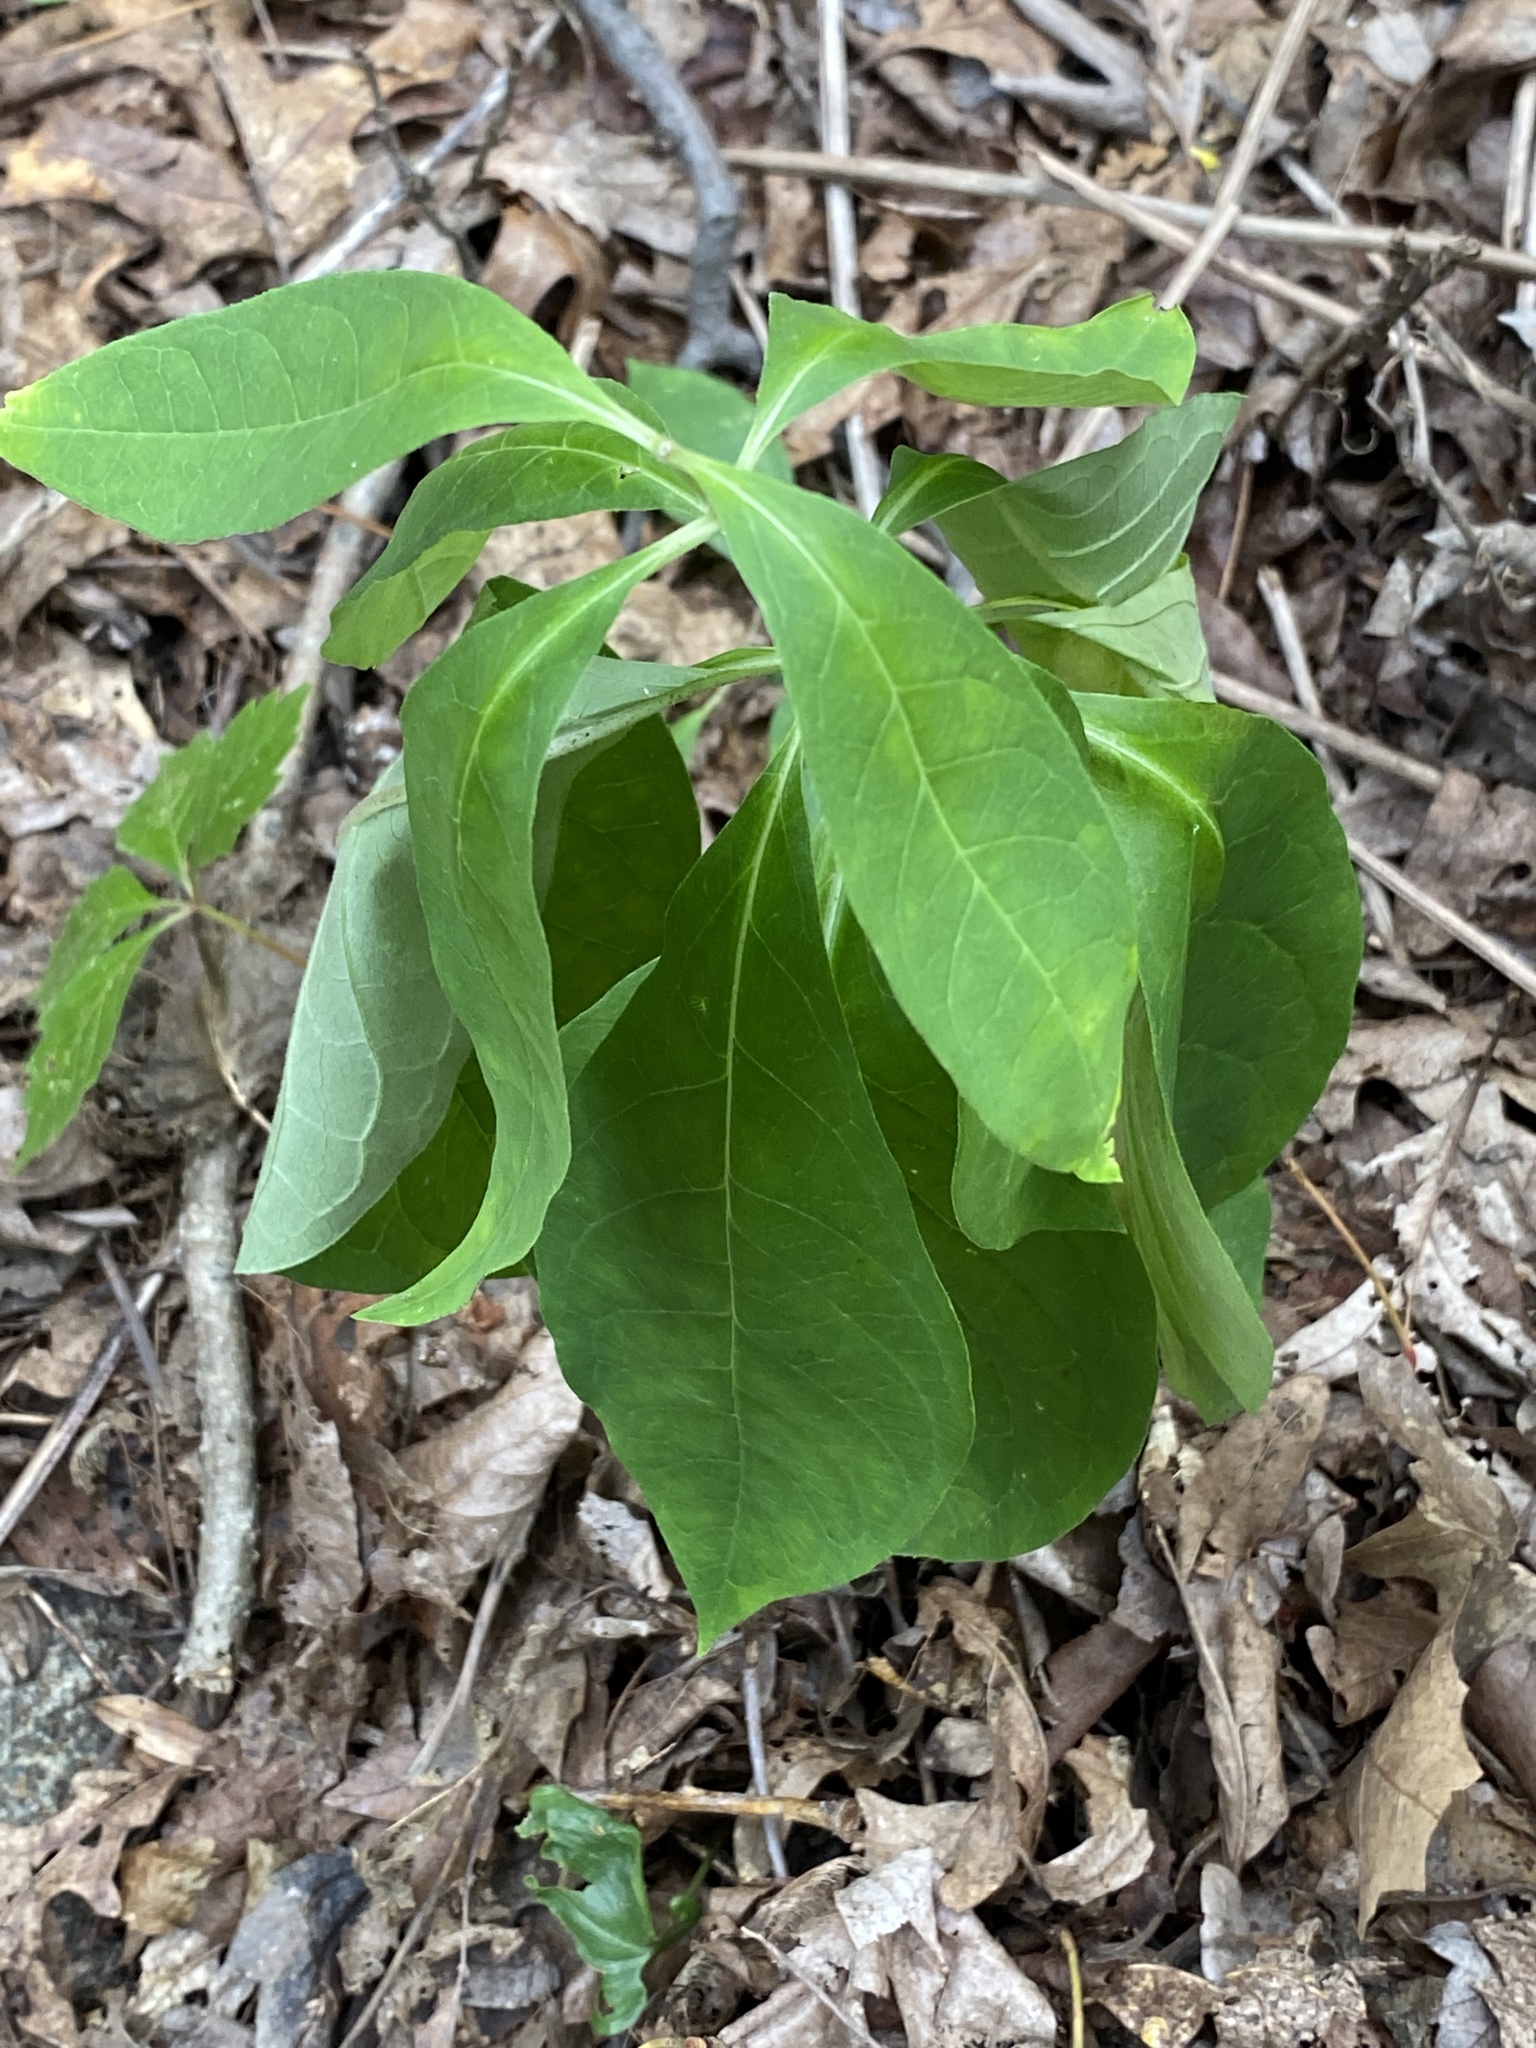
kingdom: Plantae
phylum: Tracheophyta
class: Magnoliopsida
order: Gentianales
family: Apocynaceae
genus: Asclepias
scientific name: Asclepias exaltata
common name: Poke milkweed
